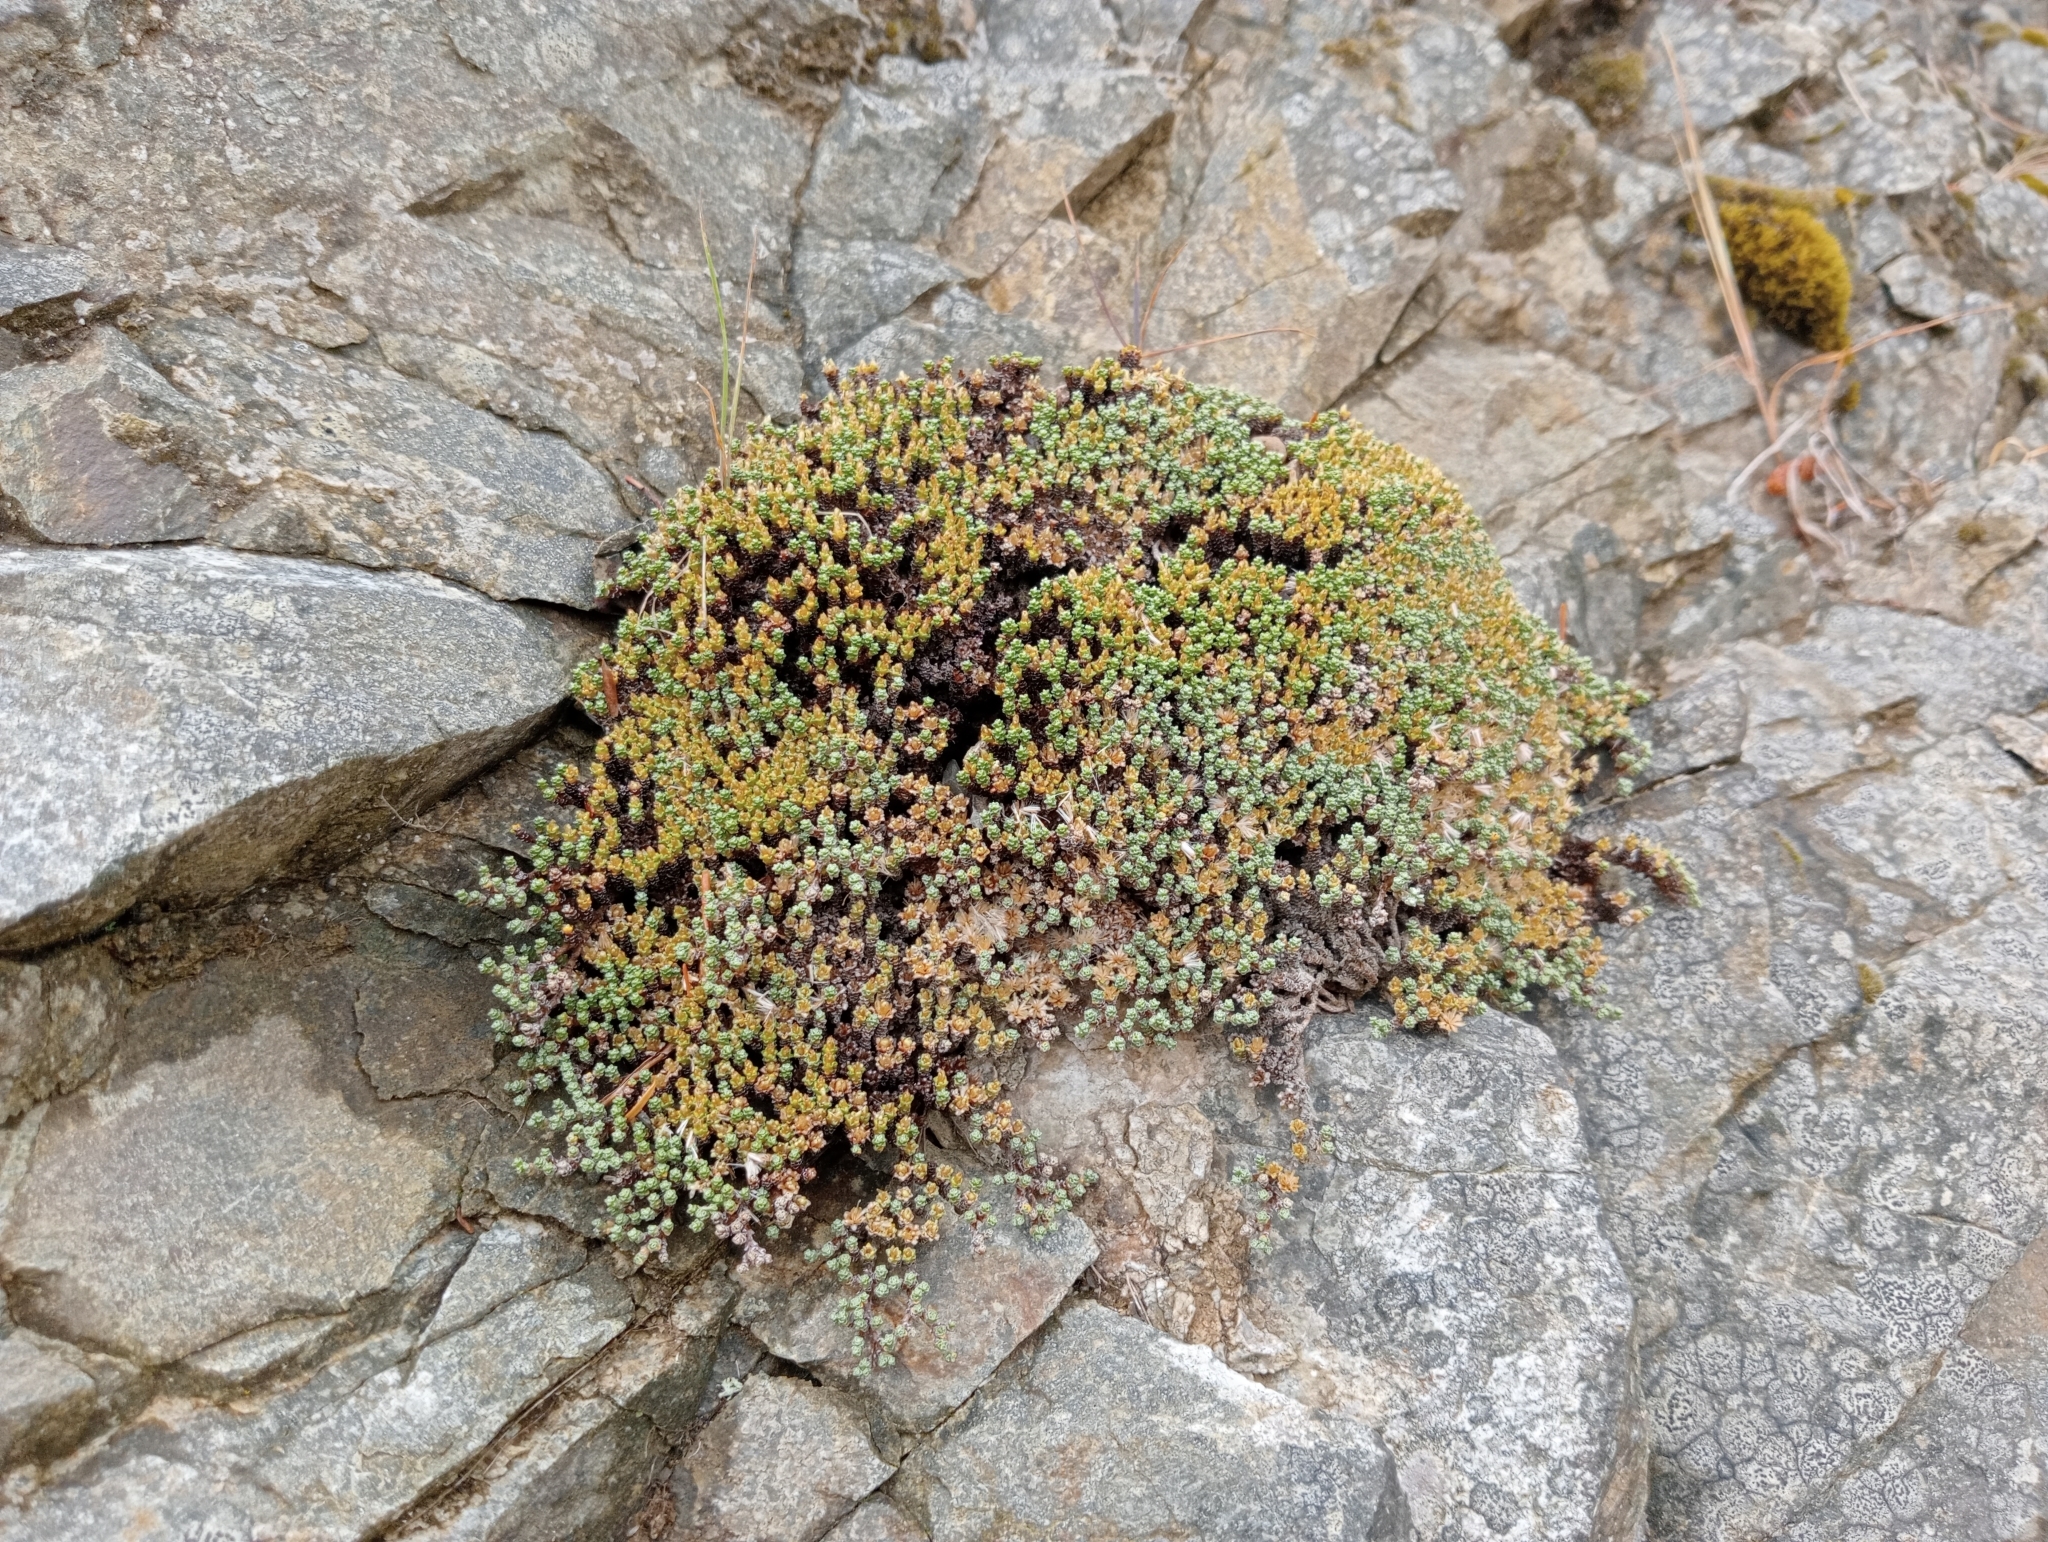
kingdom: Plantae
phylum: Tracheophyta
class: Magnoliopsida
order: Asterales
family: Asteraceae
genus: Raoulia
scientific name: Raoulia australis
